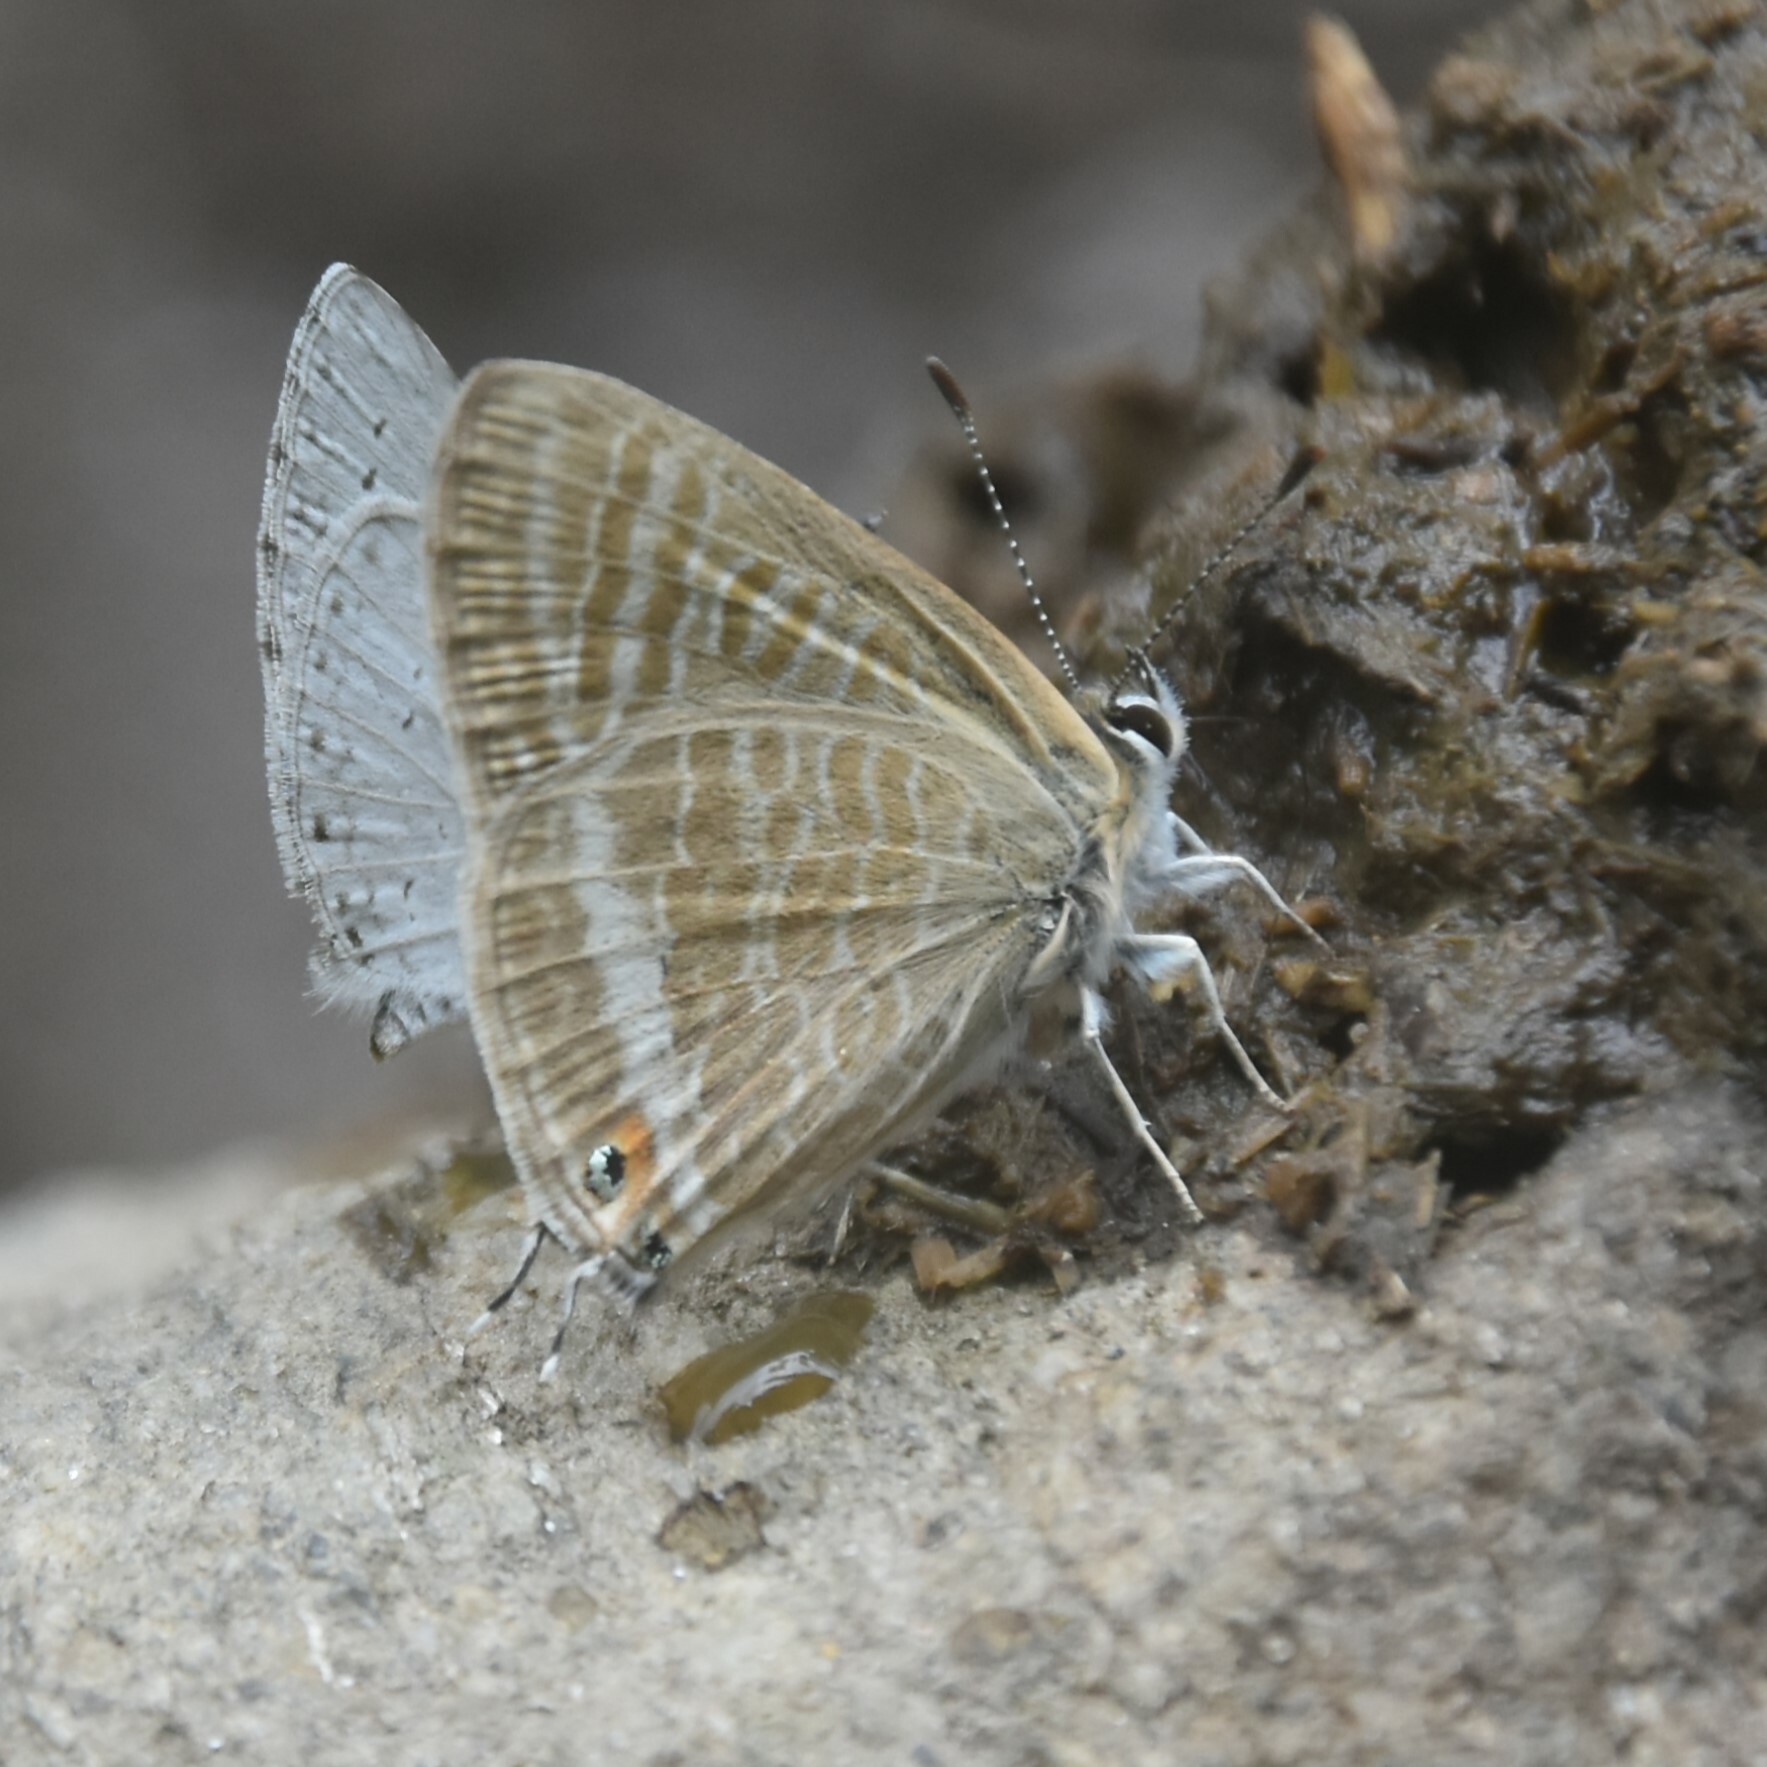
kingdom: Animalia
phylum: Arthropoda
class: Insecta
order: Lepidoptera
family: Lycaenidae
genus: Lampides
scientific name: Lampides boeticus
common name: Long-tailed blue
